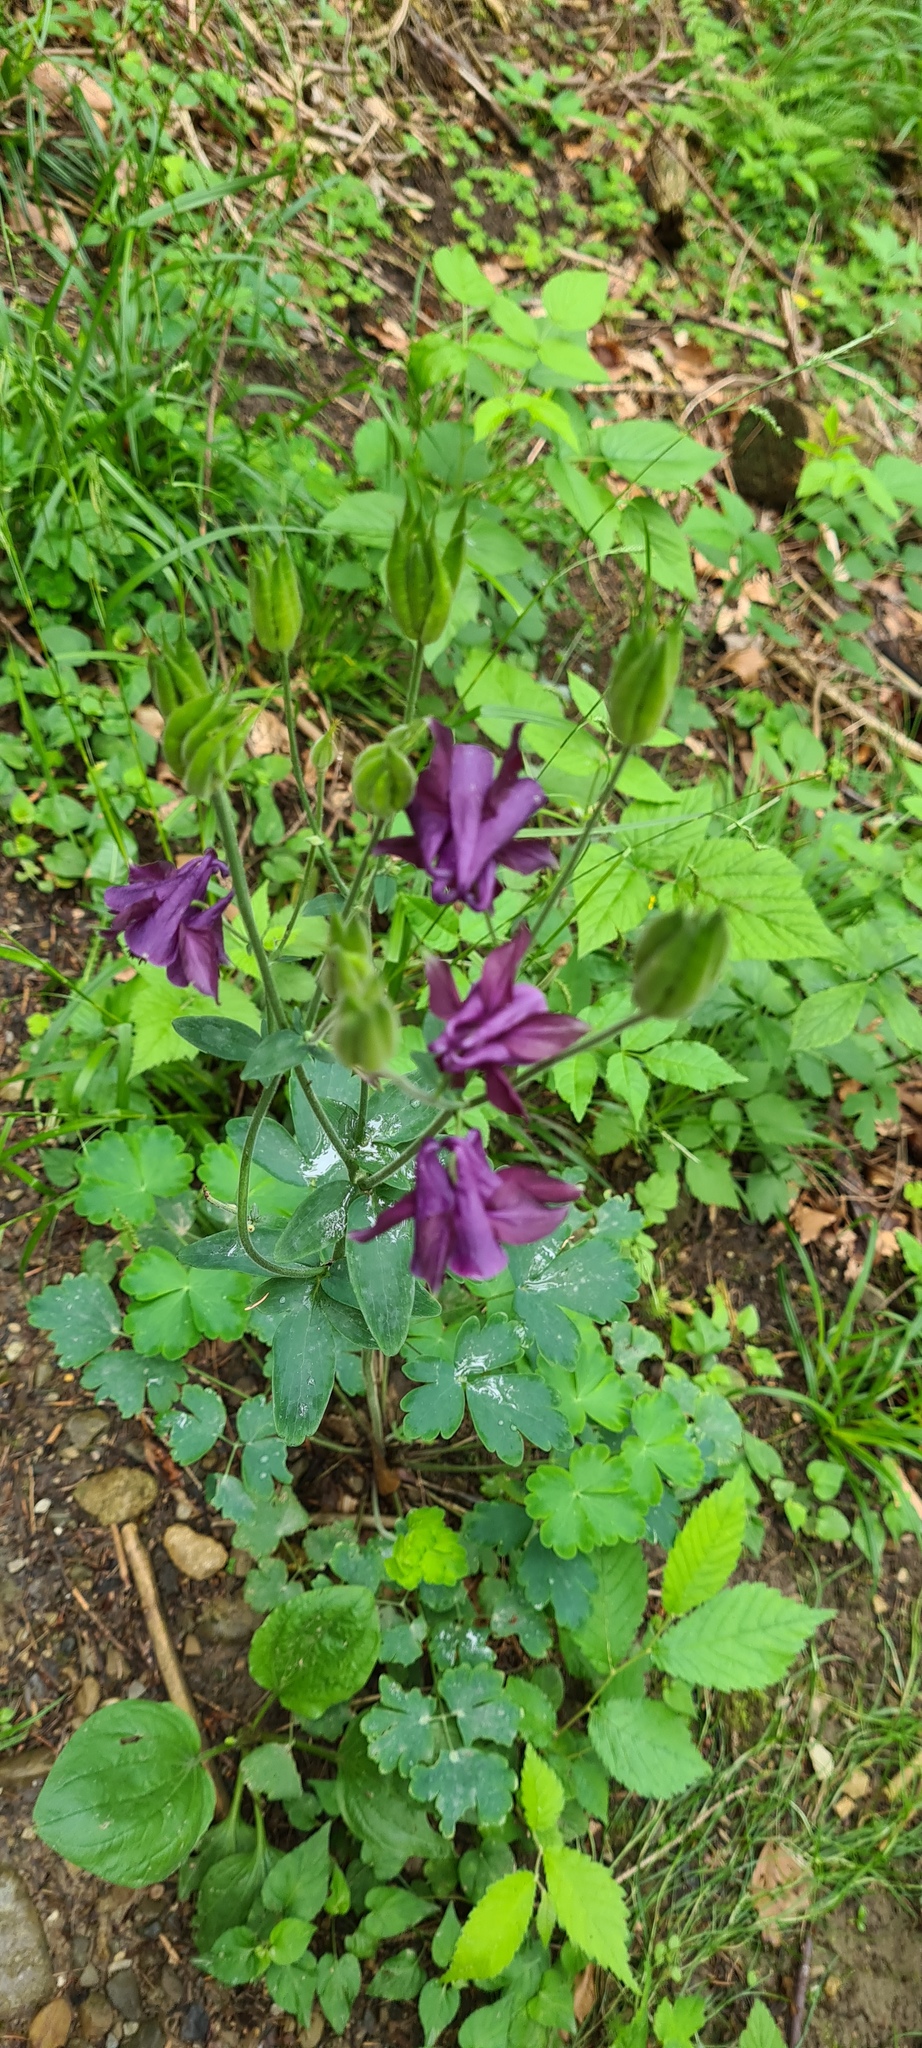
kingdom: Plantae
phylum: Tracheophyta
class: Magnoliopsida
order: Ranunculales
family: Ranunculaceae
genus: Aquilegia
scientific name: Aquilegia vulgaris
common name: Columbine
